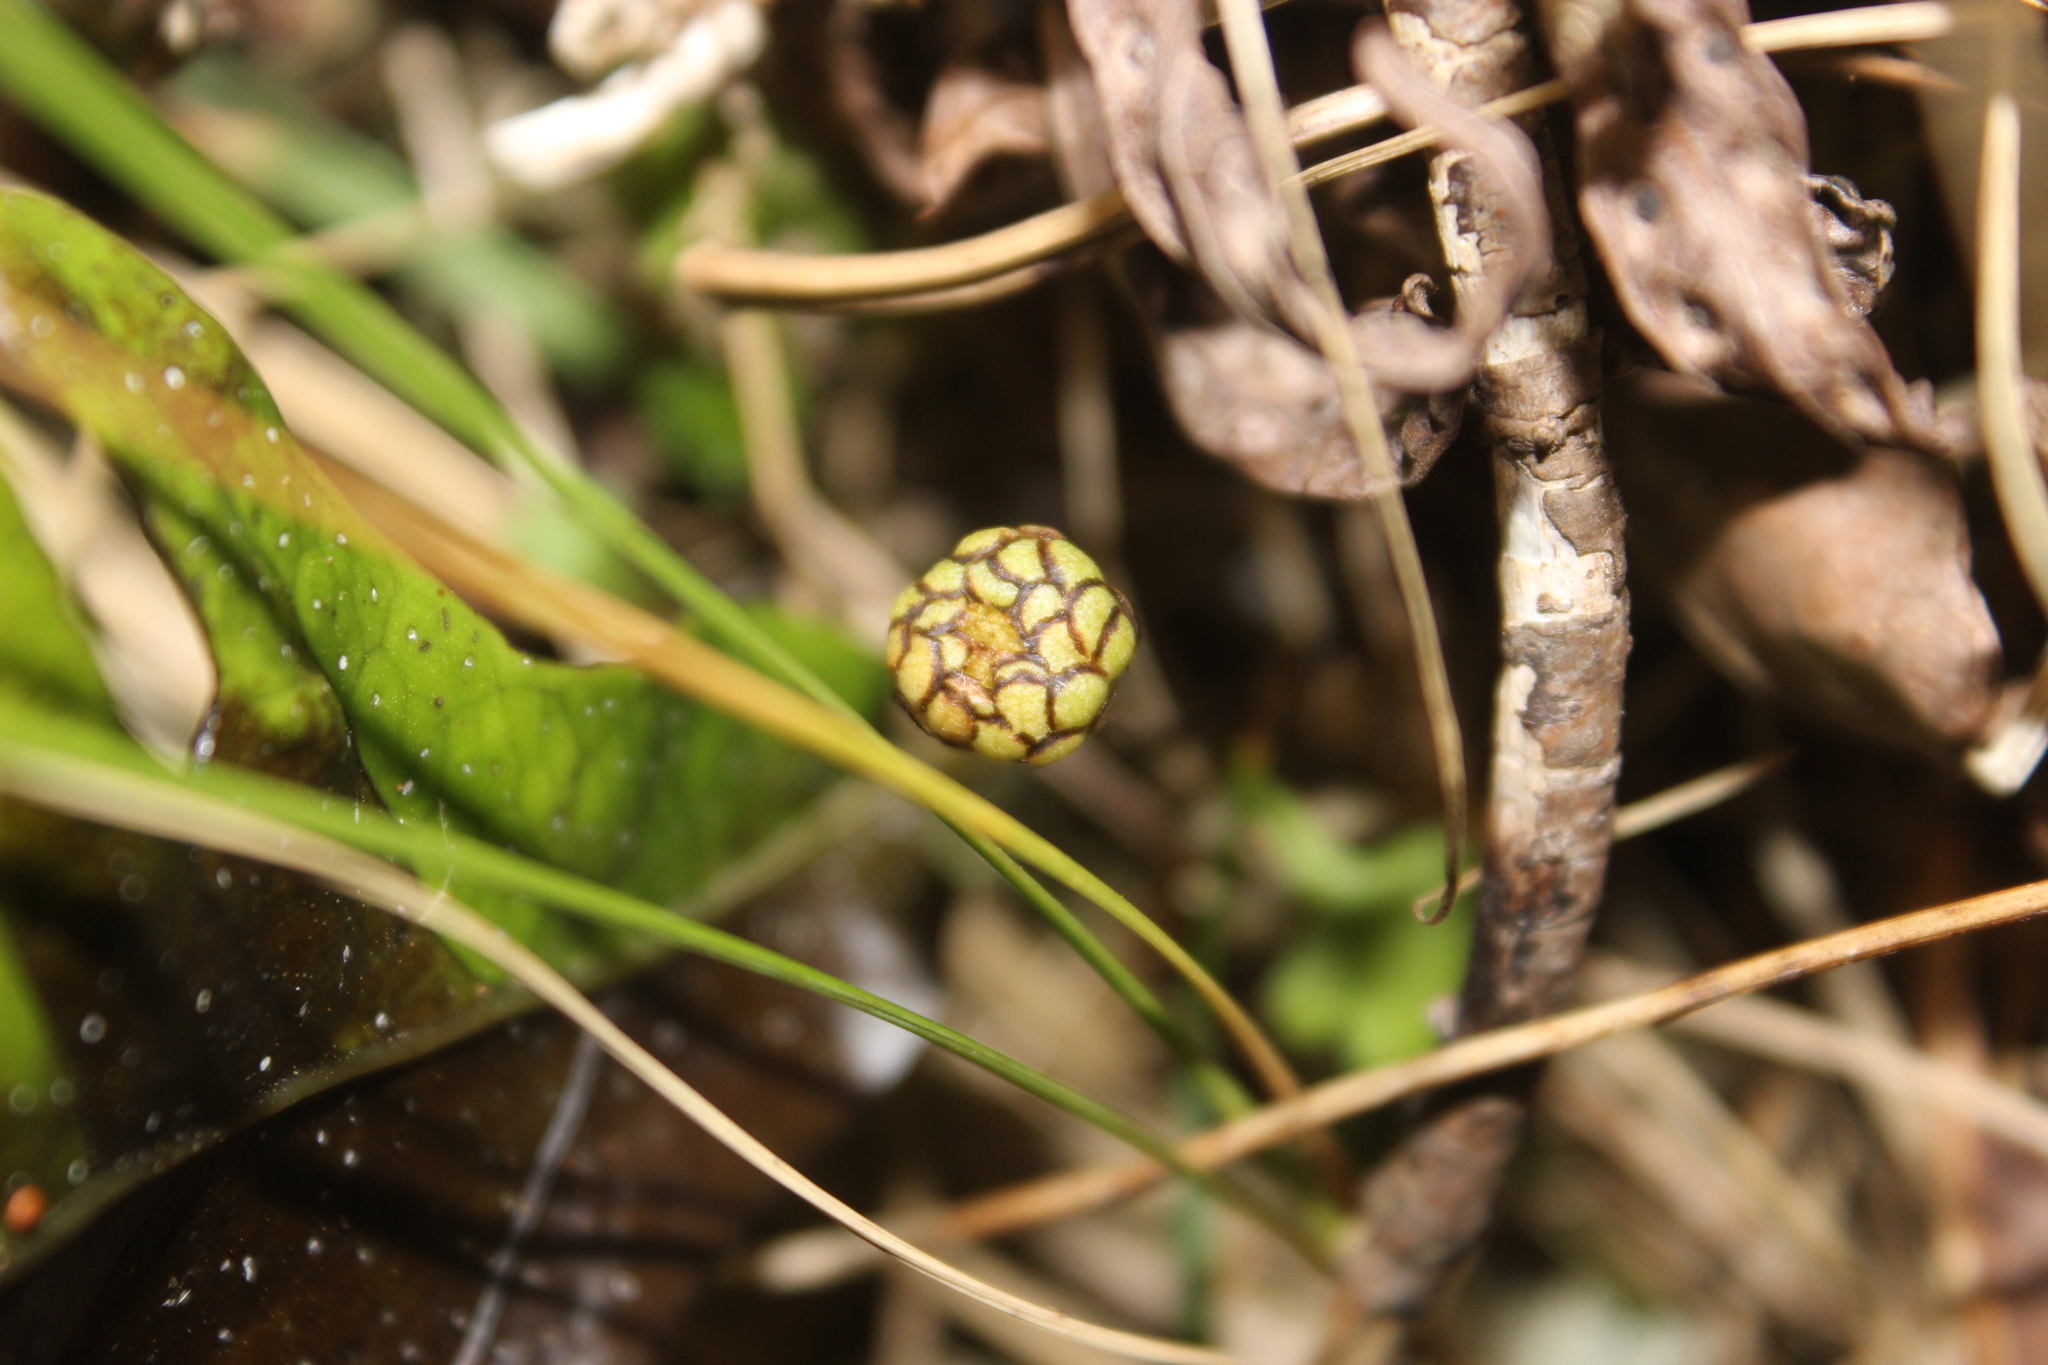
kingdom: Plantae
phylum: Tracheophyta
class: Magnoliopsida
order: Asterales
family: Asteraceae
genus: Leptinella
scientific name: Leptinella squalida
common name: New zealand brass-buttons
